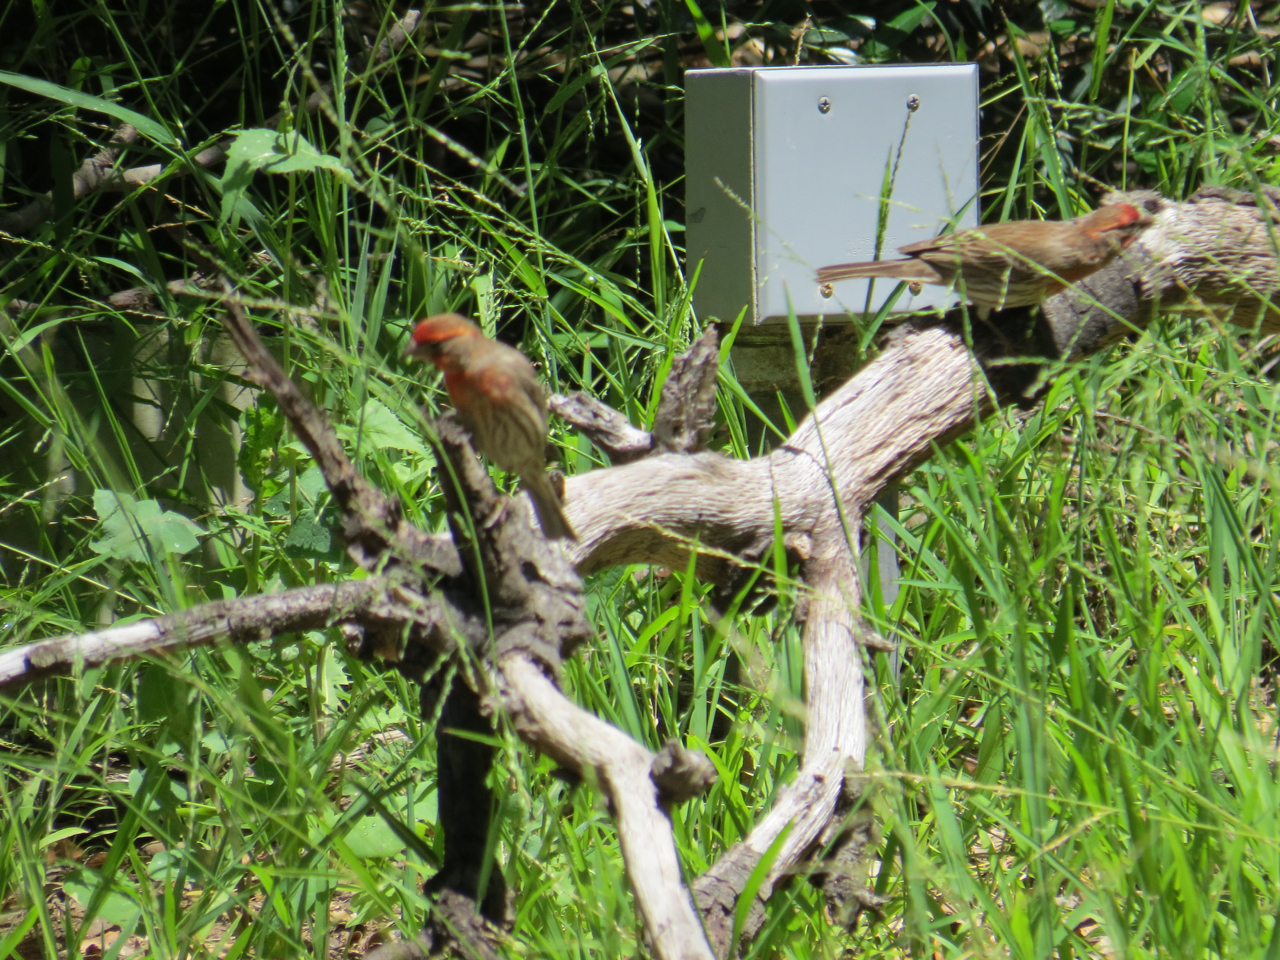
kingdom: Animalia
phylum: Chordata
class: Aves
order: Passeriformes
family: Fringillidae
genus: Haemorhous
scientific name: Haemorhous mexicanus
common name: House finch
